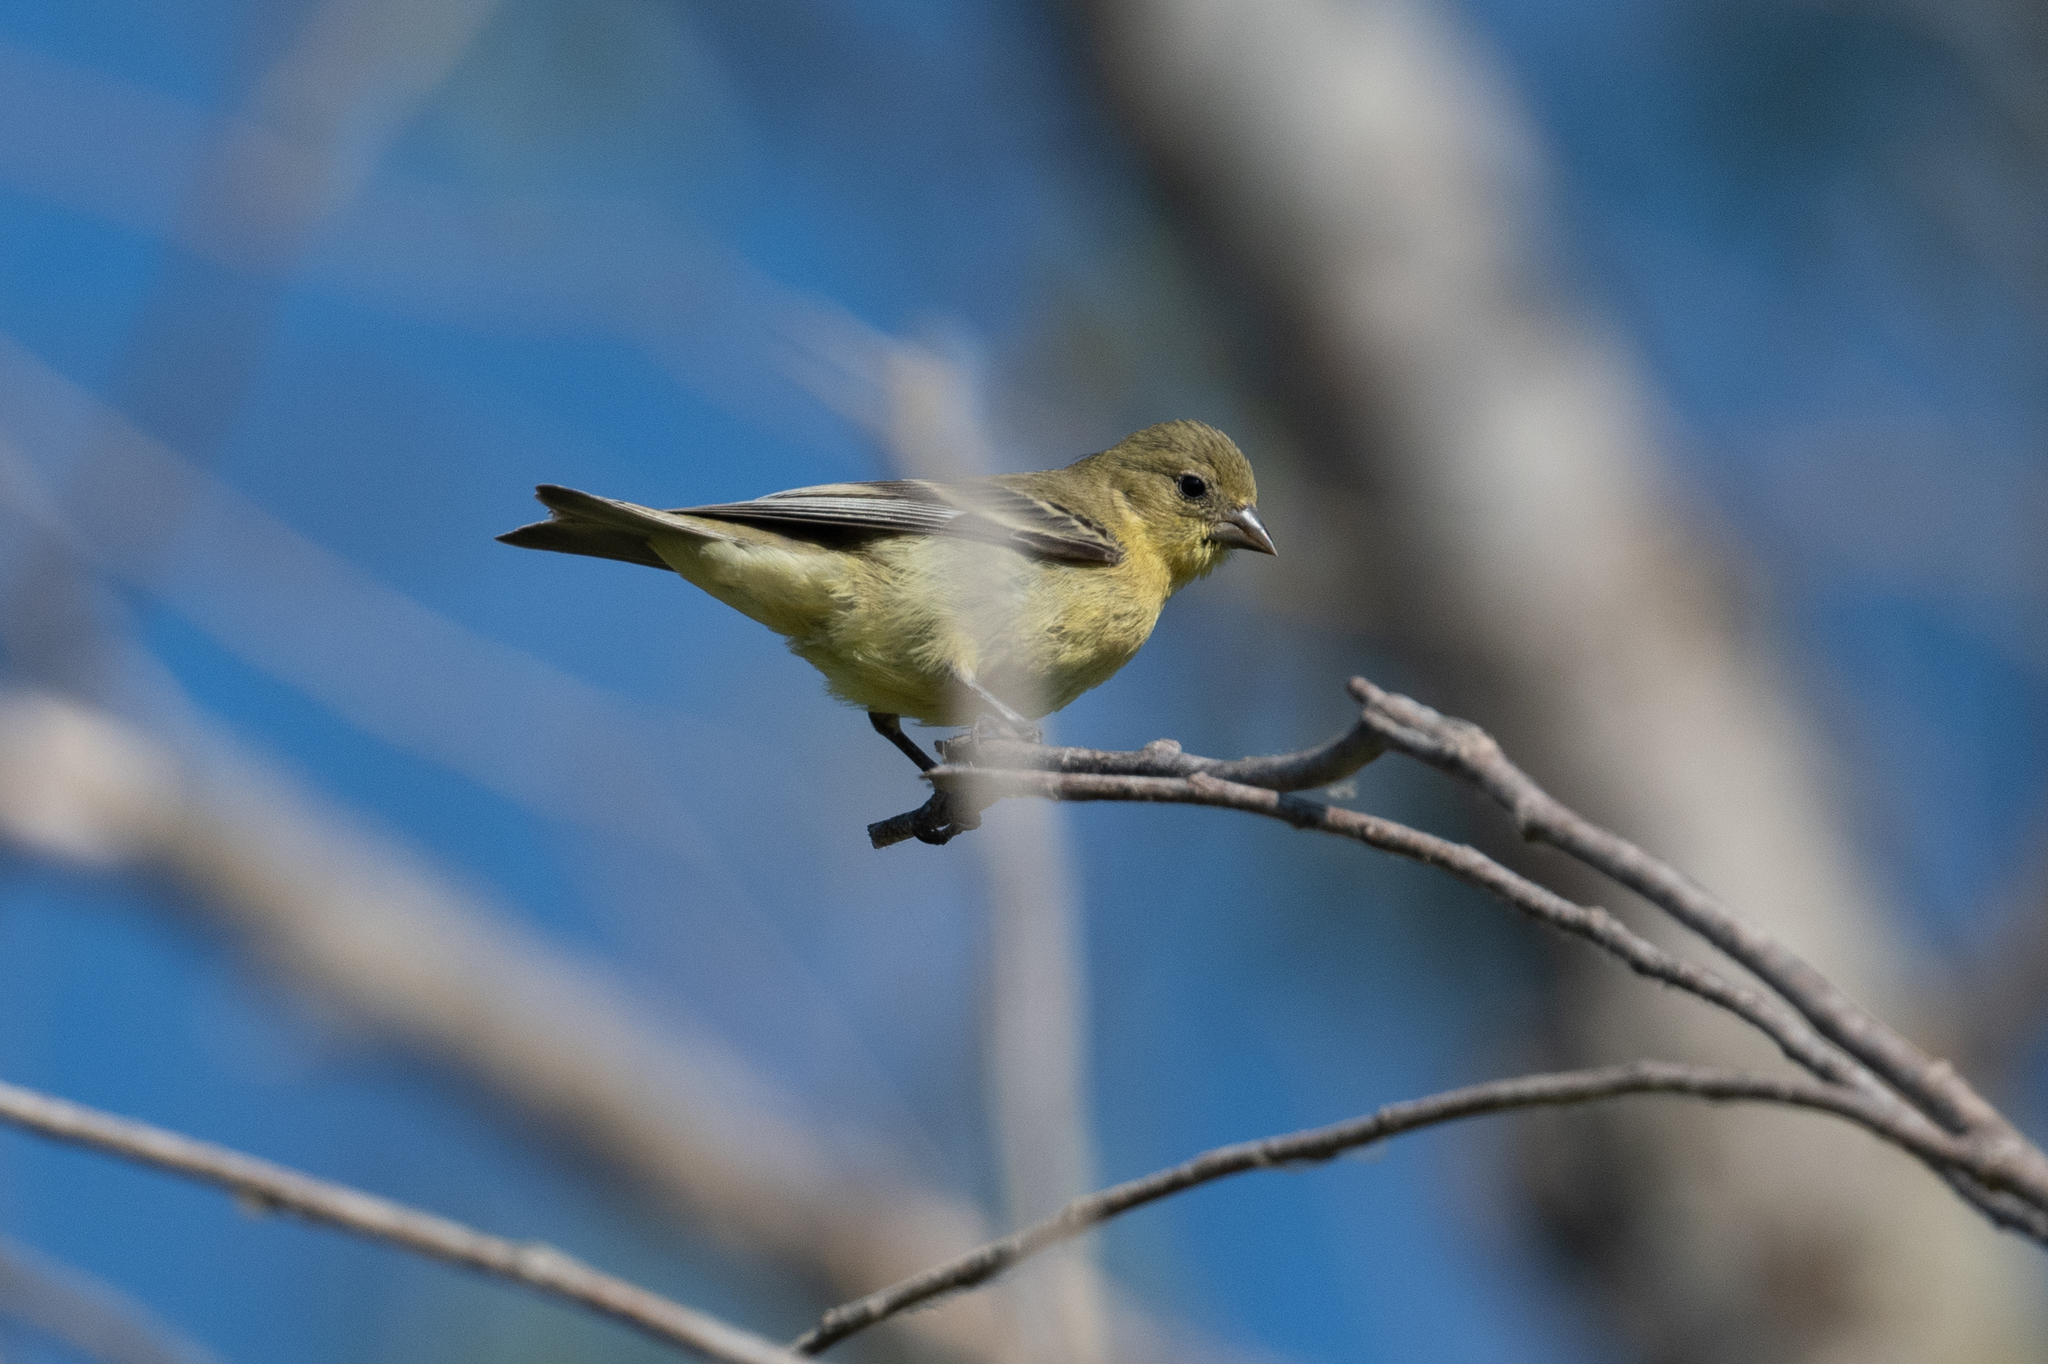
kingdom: Animalia
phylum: Chordata
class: Aves
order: Passeriformes
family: Fringillidae
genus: Spinus
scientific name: Spinus psaltria
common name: Lesser goldfinch
